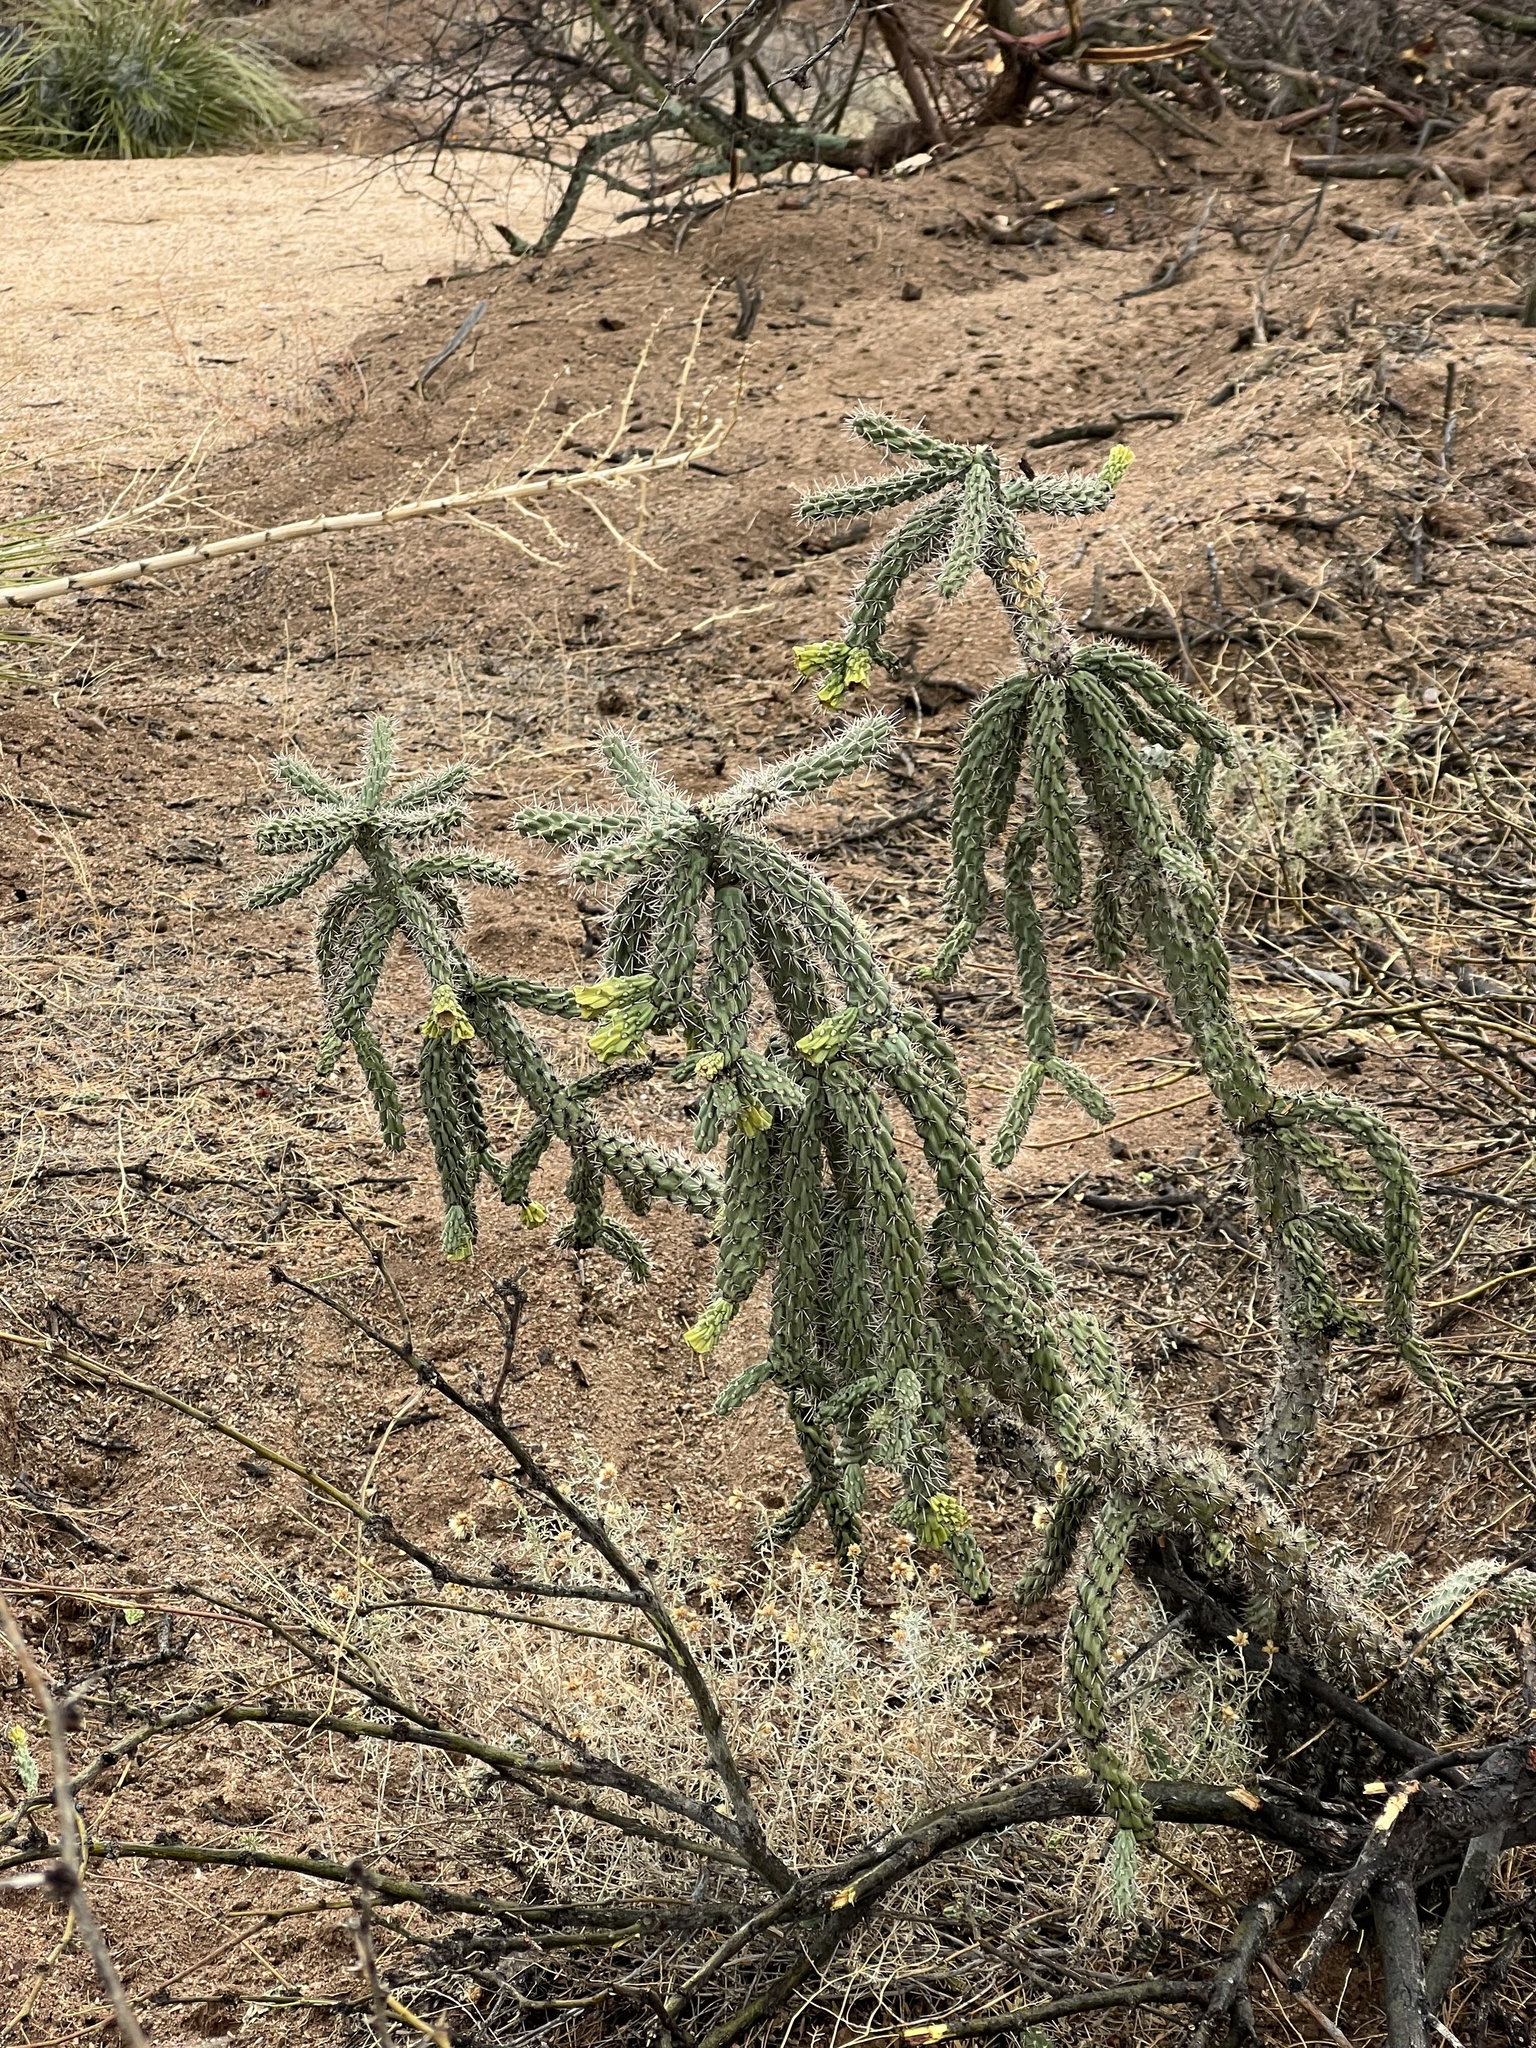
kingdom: Plantae
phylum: Tracheophyta
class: Magnoliopsida
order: Caryophyllales
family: Cactaceae
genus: Cylindropuntia
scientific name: Cylindropuntia imbricata
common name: Candelabrum cactus
